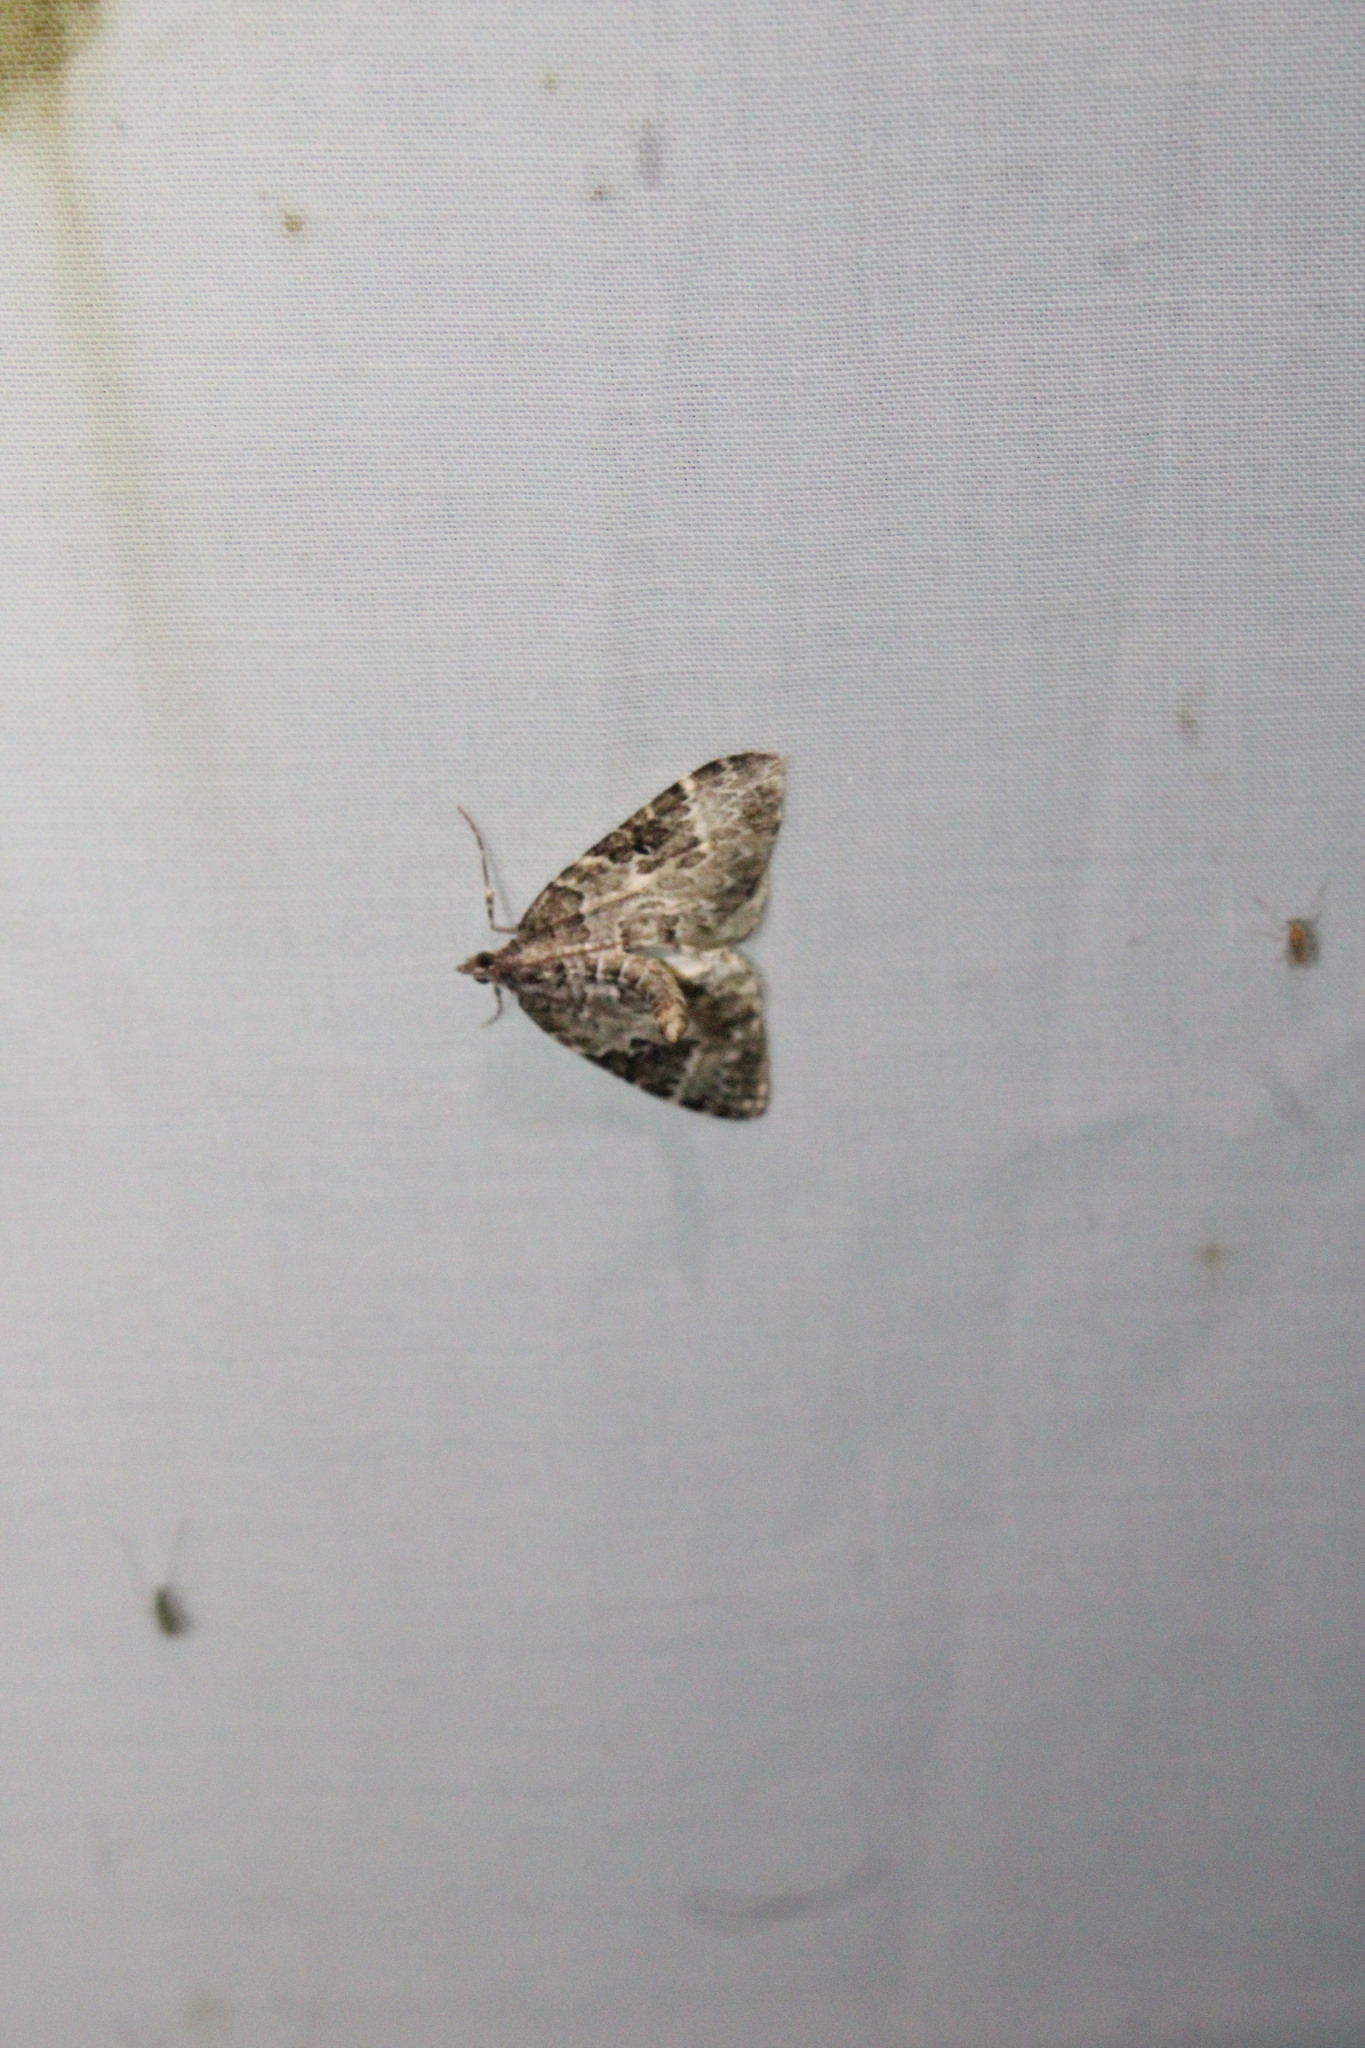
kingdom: Animalia
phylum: Arthropoda
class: Insecta
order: Lepidoptera
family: Geometridae
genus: Eulithis
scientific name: Eulithis explanata
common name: White eulithis
